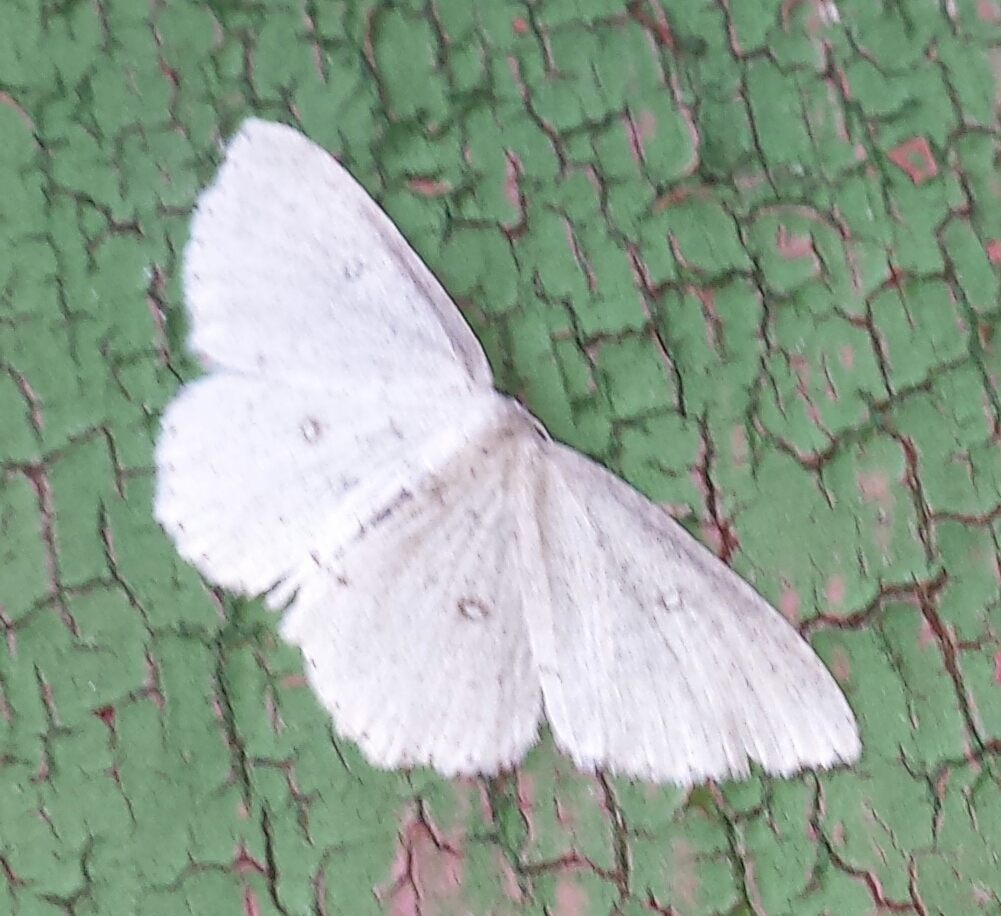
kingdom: Animalia
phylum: Arthropoda
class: Insecta
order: Lepidoptera
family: Geometridae
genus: Cyclophora
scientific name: Cyclophora pendulinaria
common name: Sweet fern geometer
